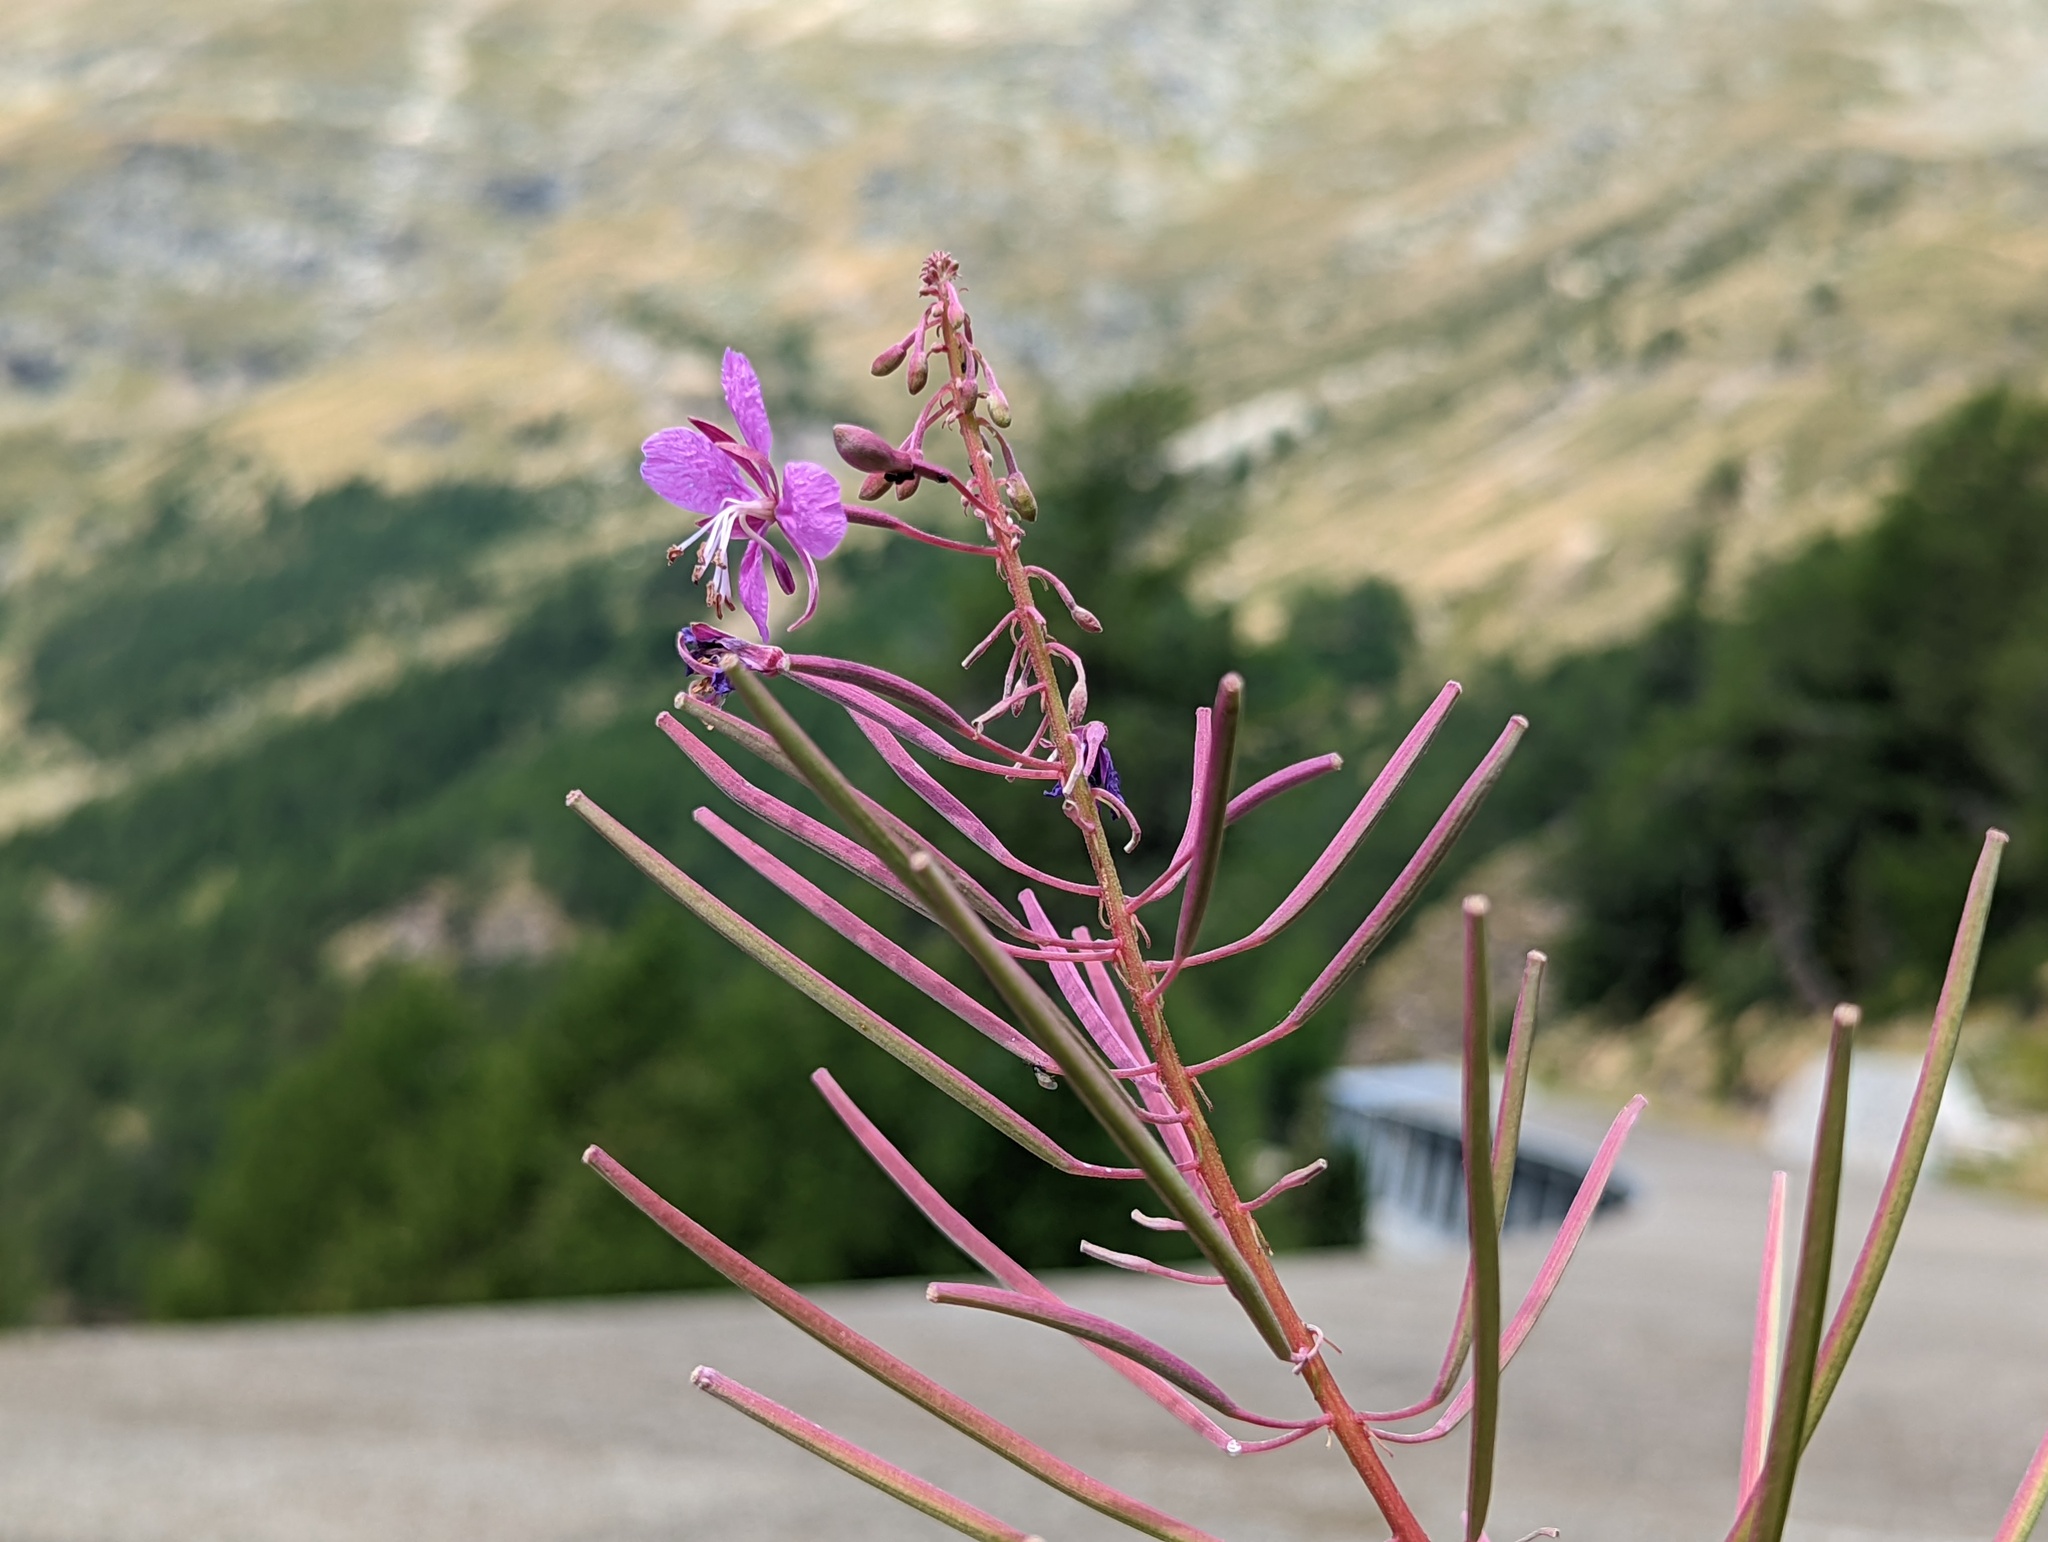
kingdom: Plantae
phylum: Tracheophyta
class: Magnoliopsida
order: Myrtales
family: Onagraceae
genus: Chamaenerion
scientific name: Chamaenerion angustifolium
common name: Fireweed
